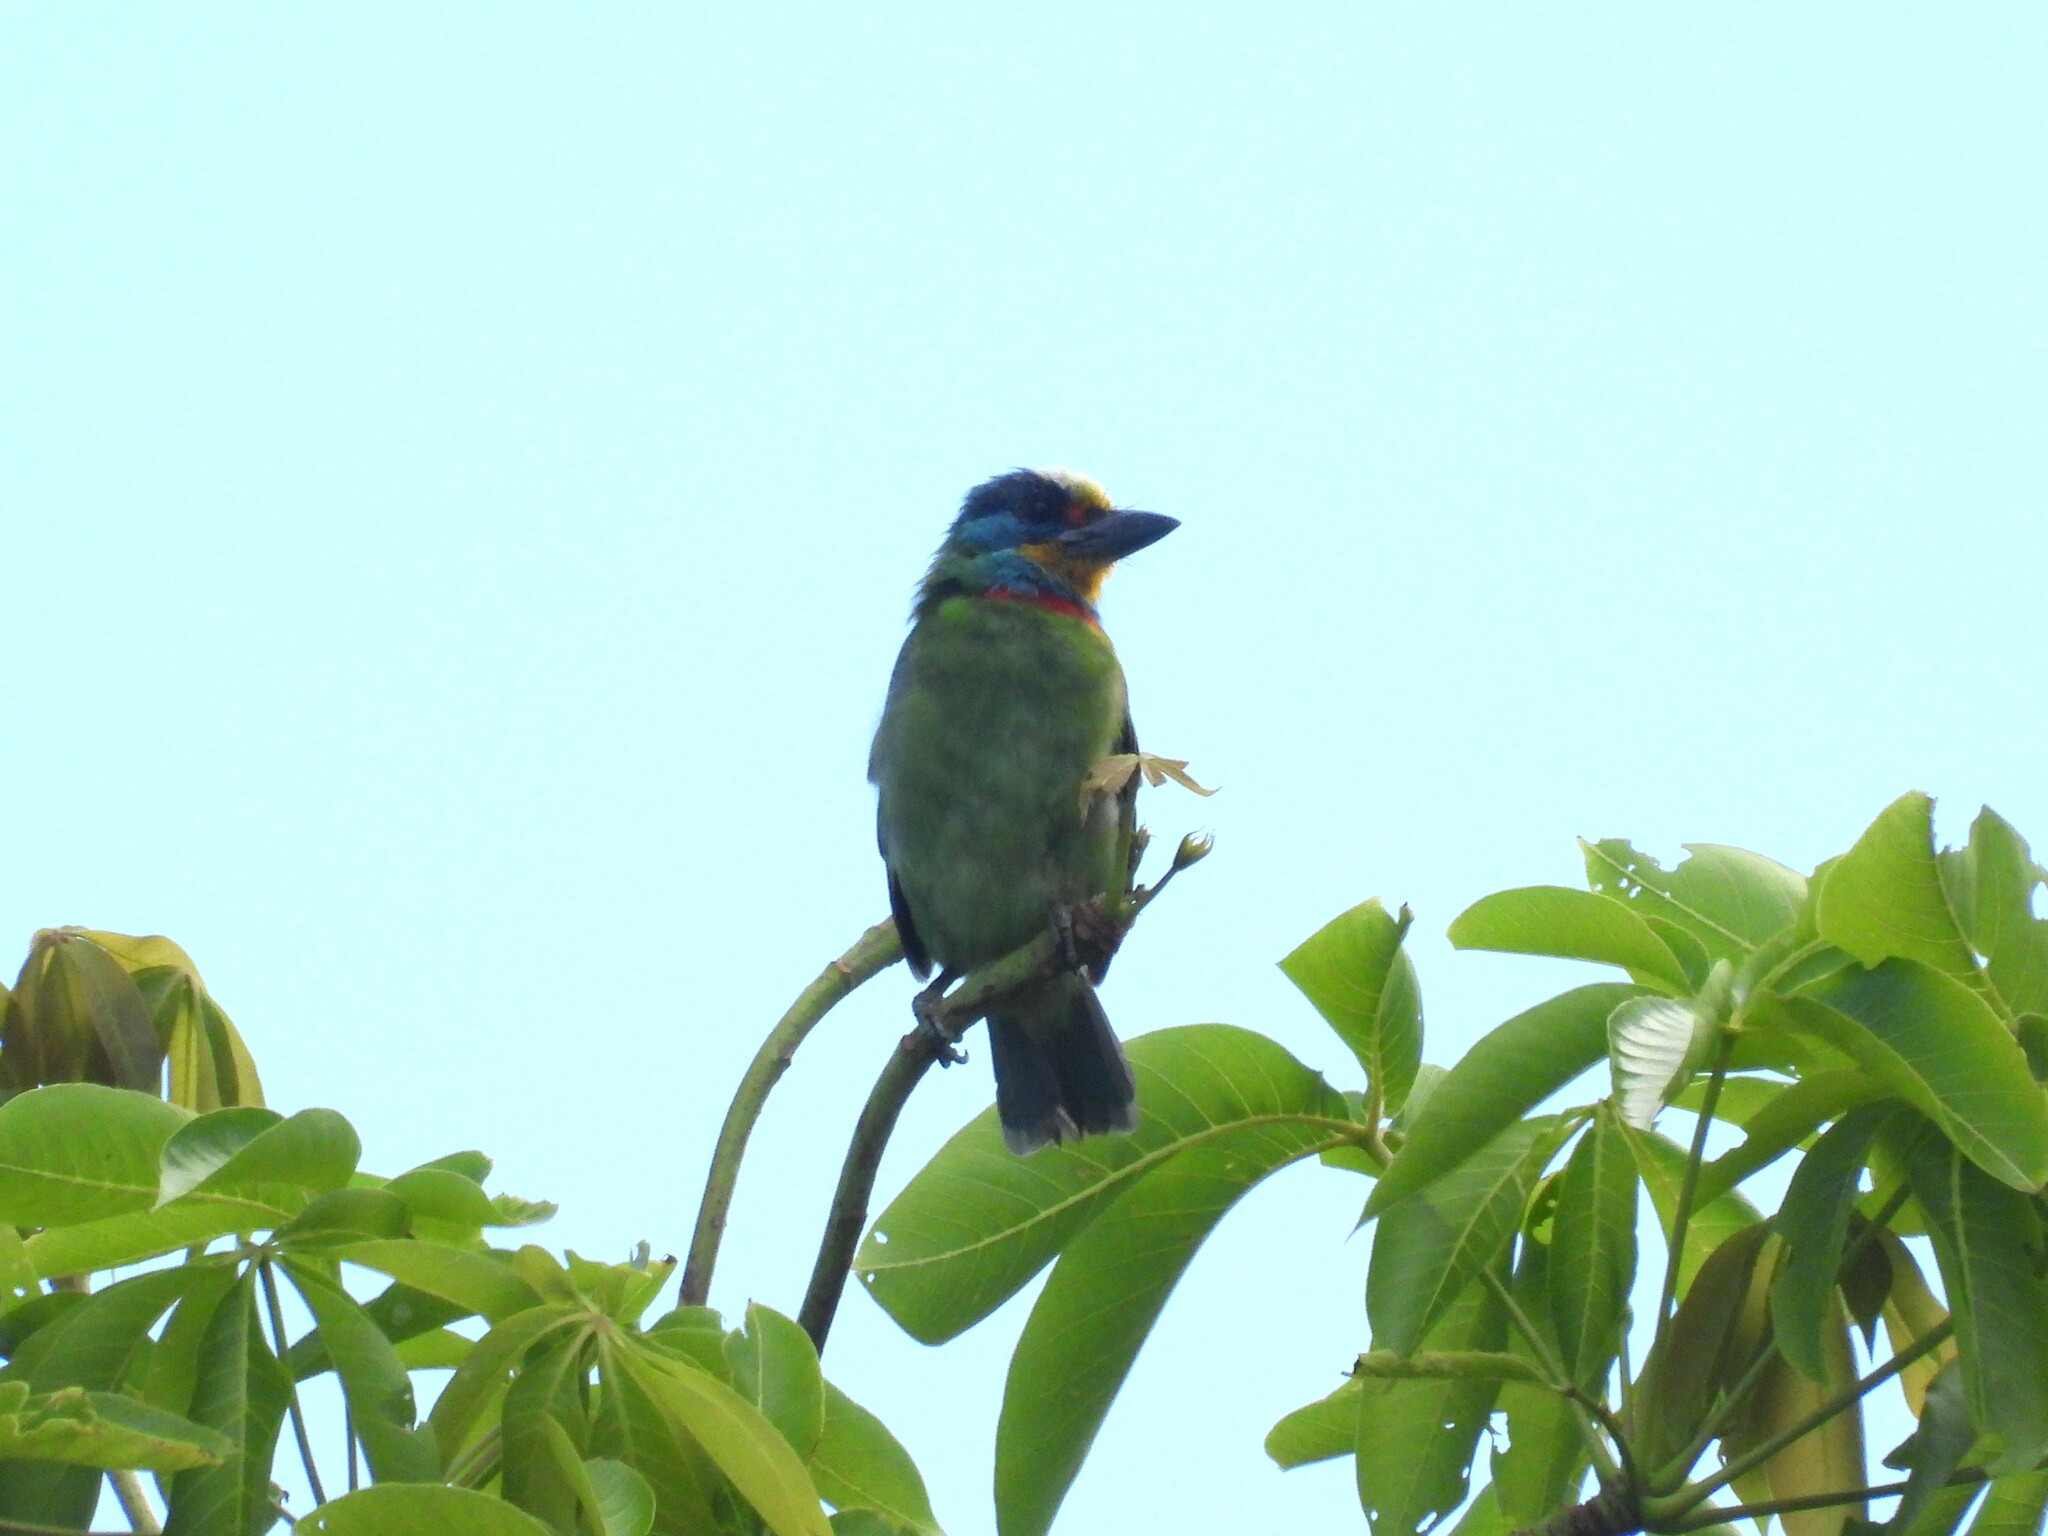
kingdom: Animalia
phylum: Chordata
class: Aves
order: Piciformes
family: Megalaimidae
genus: Psilopogon
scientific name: Psilopogon nuchalis
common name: Taiwan barbet
